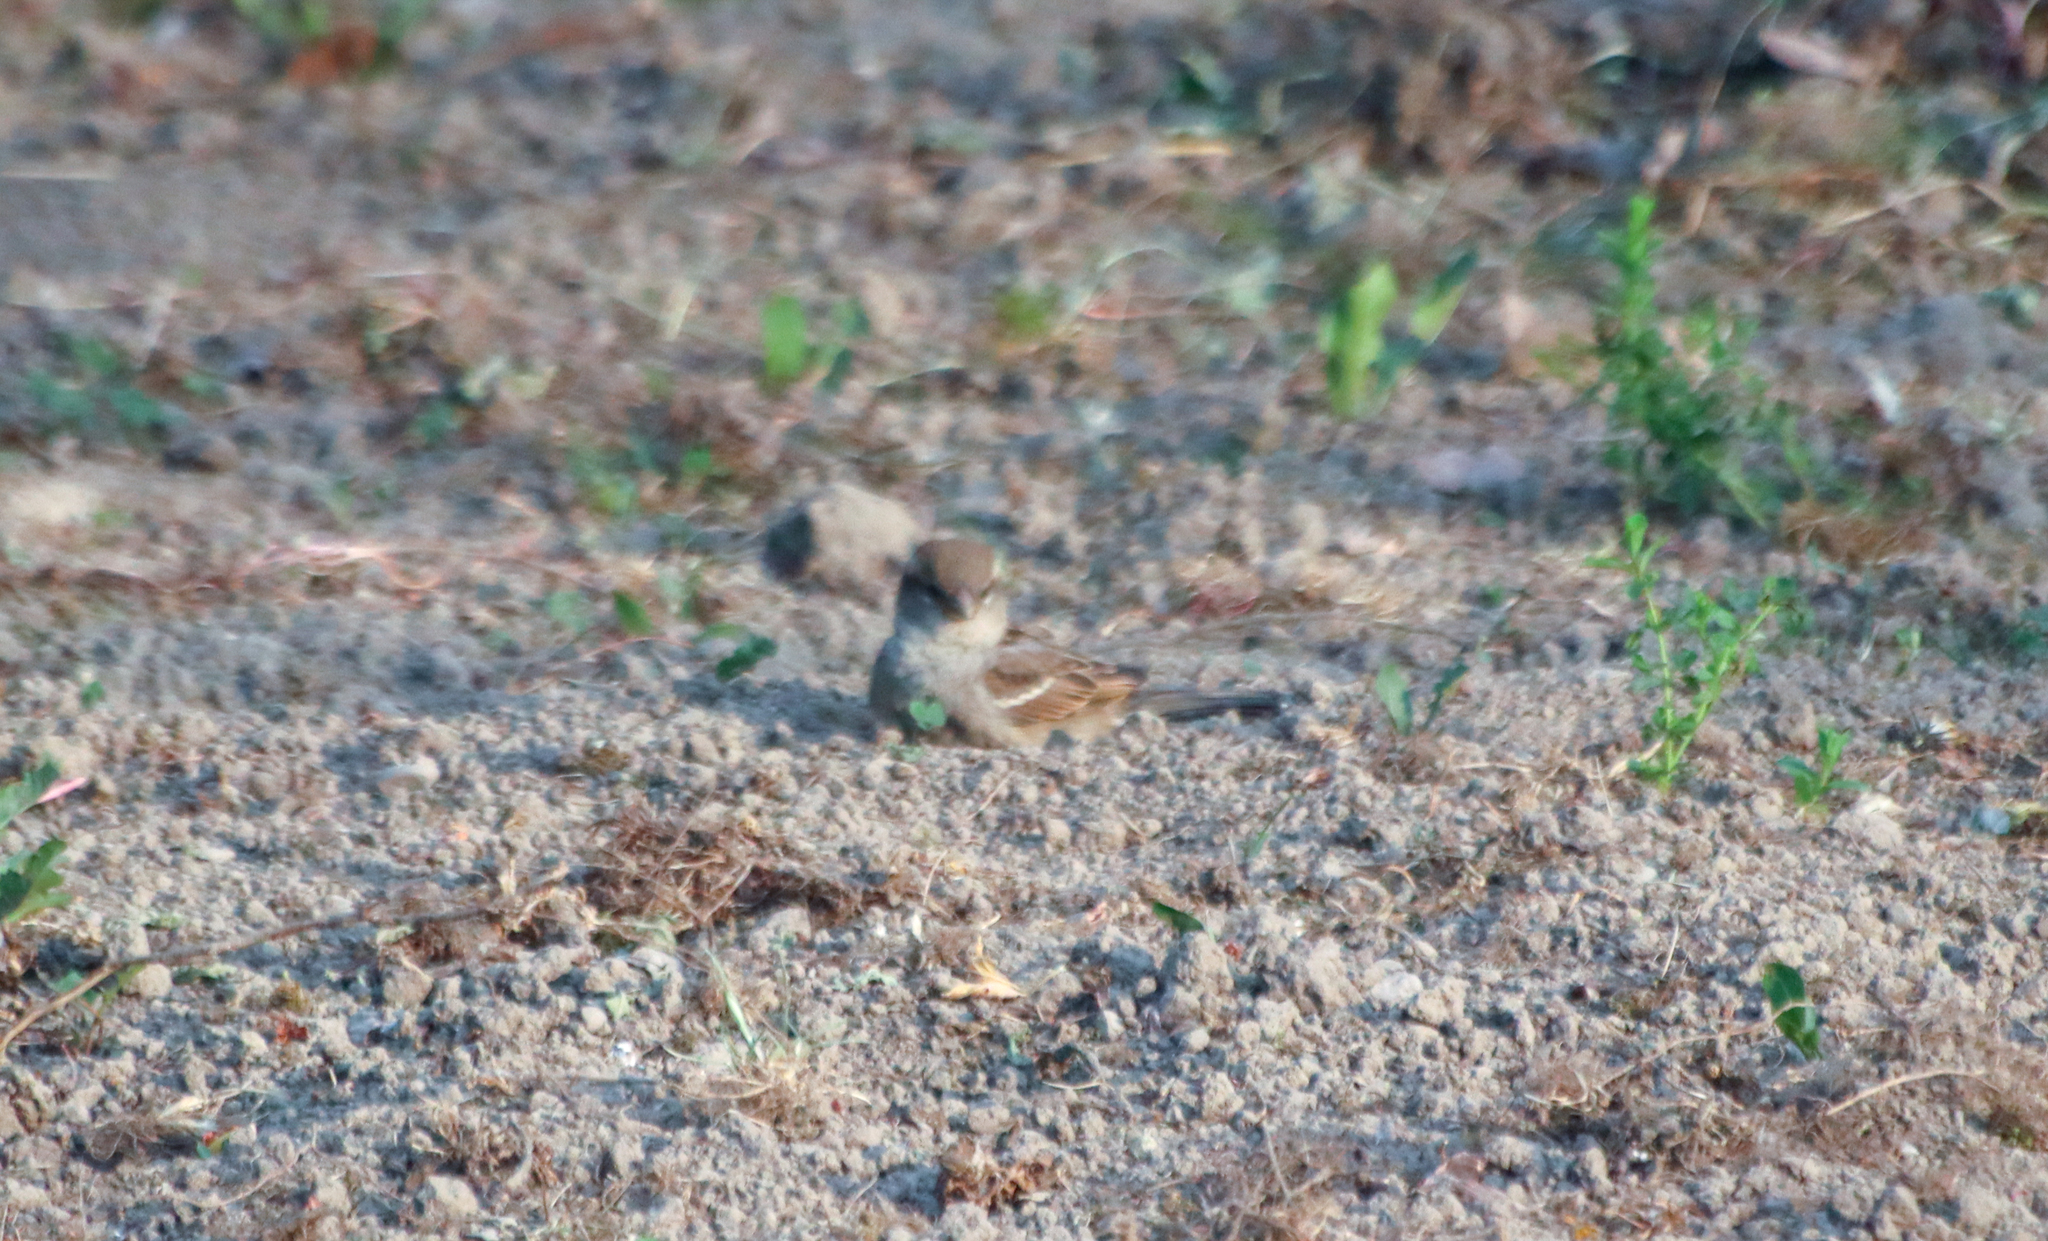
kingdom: Animalia
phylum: Chordata
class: Aves
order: Passeriformes
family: Passeridae
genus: Passer
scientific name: Passer domesticus
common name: House sparrow
